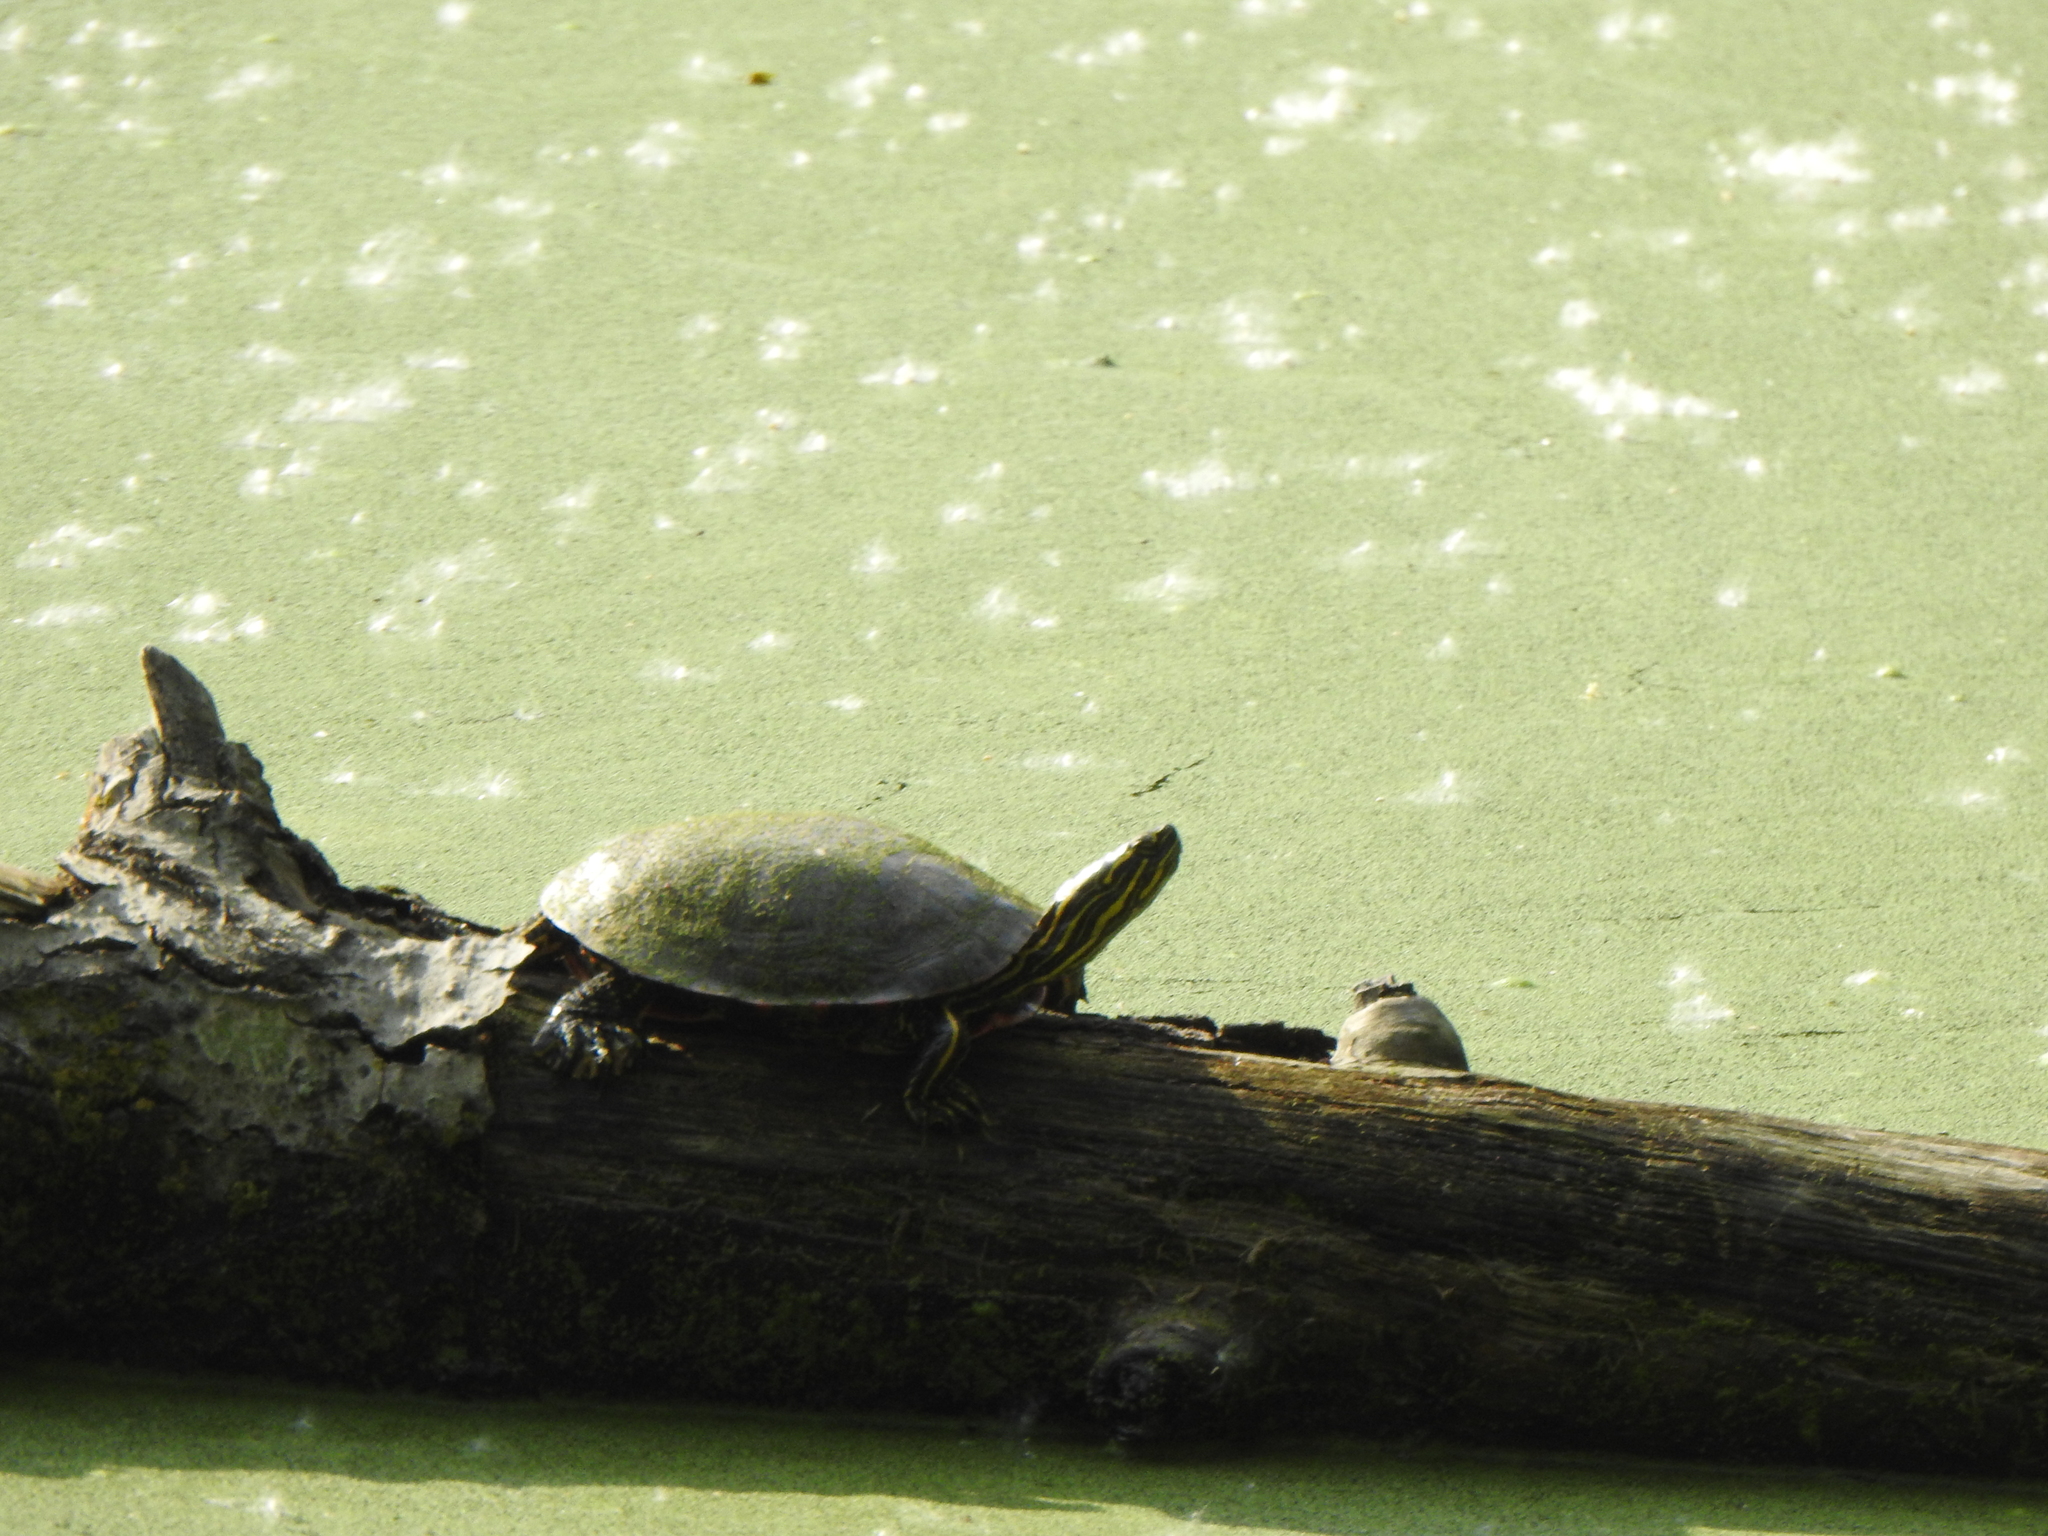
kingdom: Animalia
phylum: Chordata
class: Testudines
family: Emydidae
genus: Chrysemys
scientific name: Chrysemys picta
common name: Painted turtle
